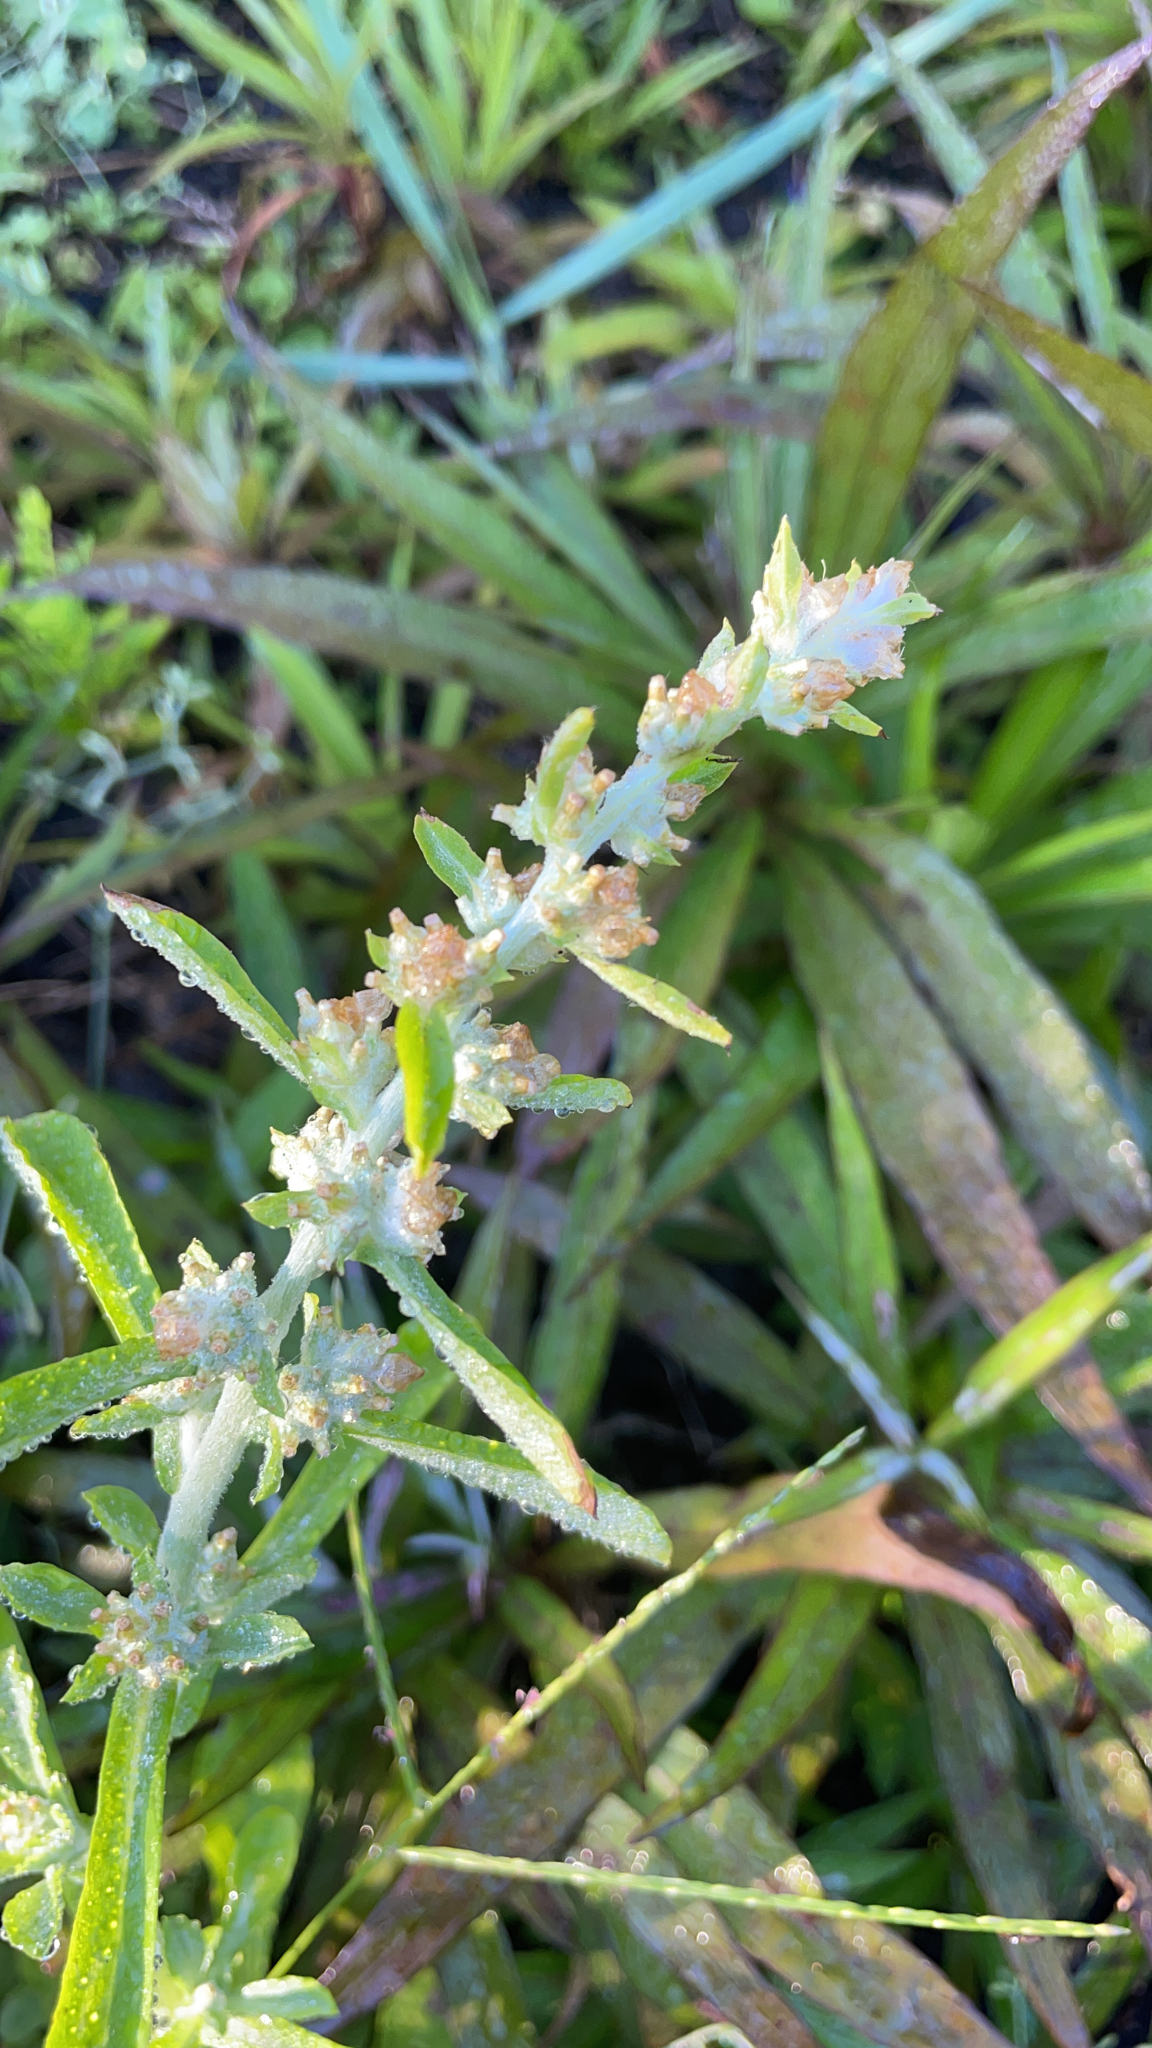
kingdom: Plantae
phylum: Tracheophyta
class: Magnoliopsida
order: Asterales
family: Asteraceae
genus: Gamochaeta
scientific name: Gamochaeta pensylvanica
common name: Pennsylvania everlasting
